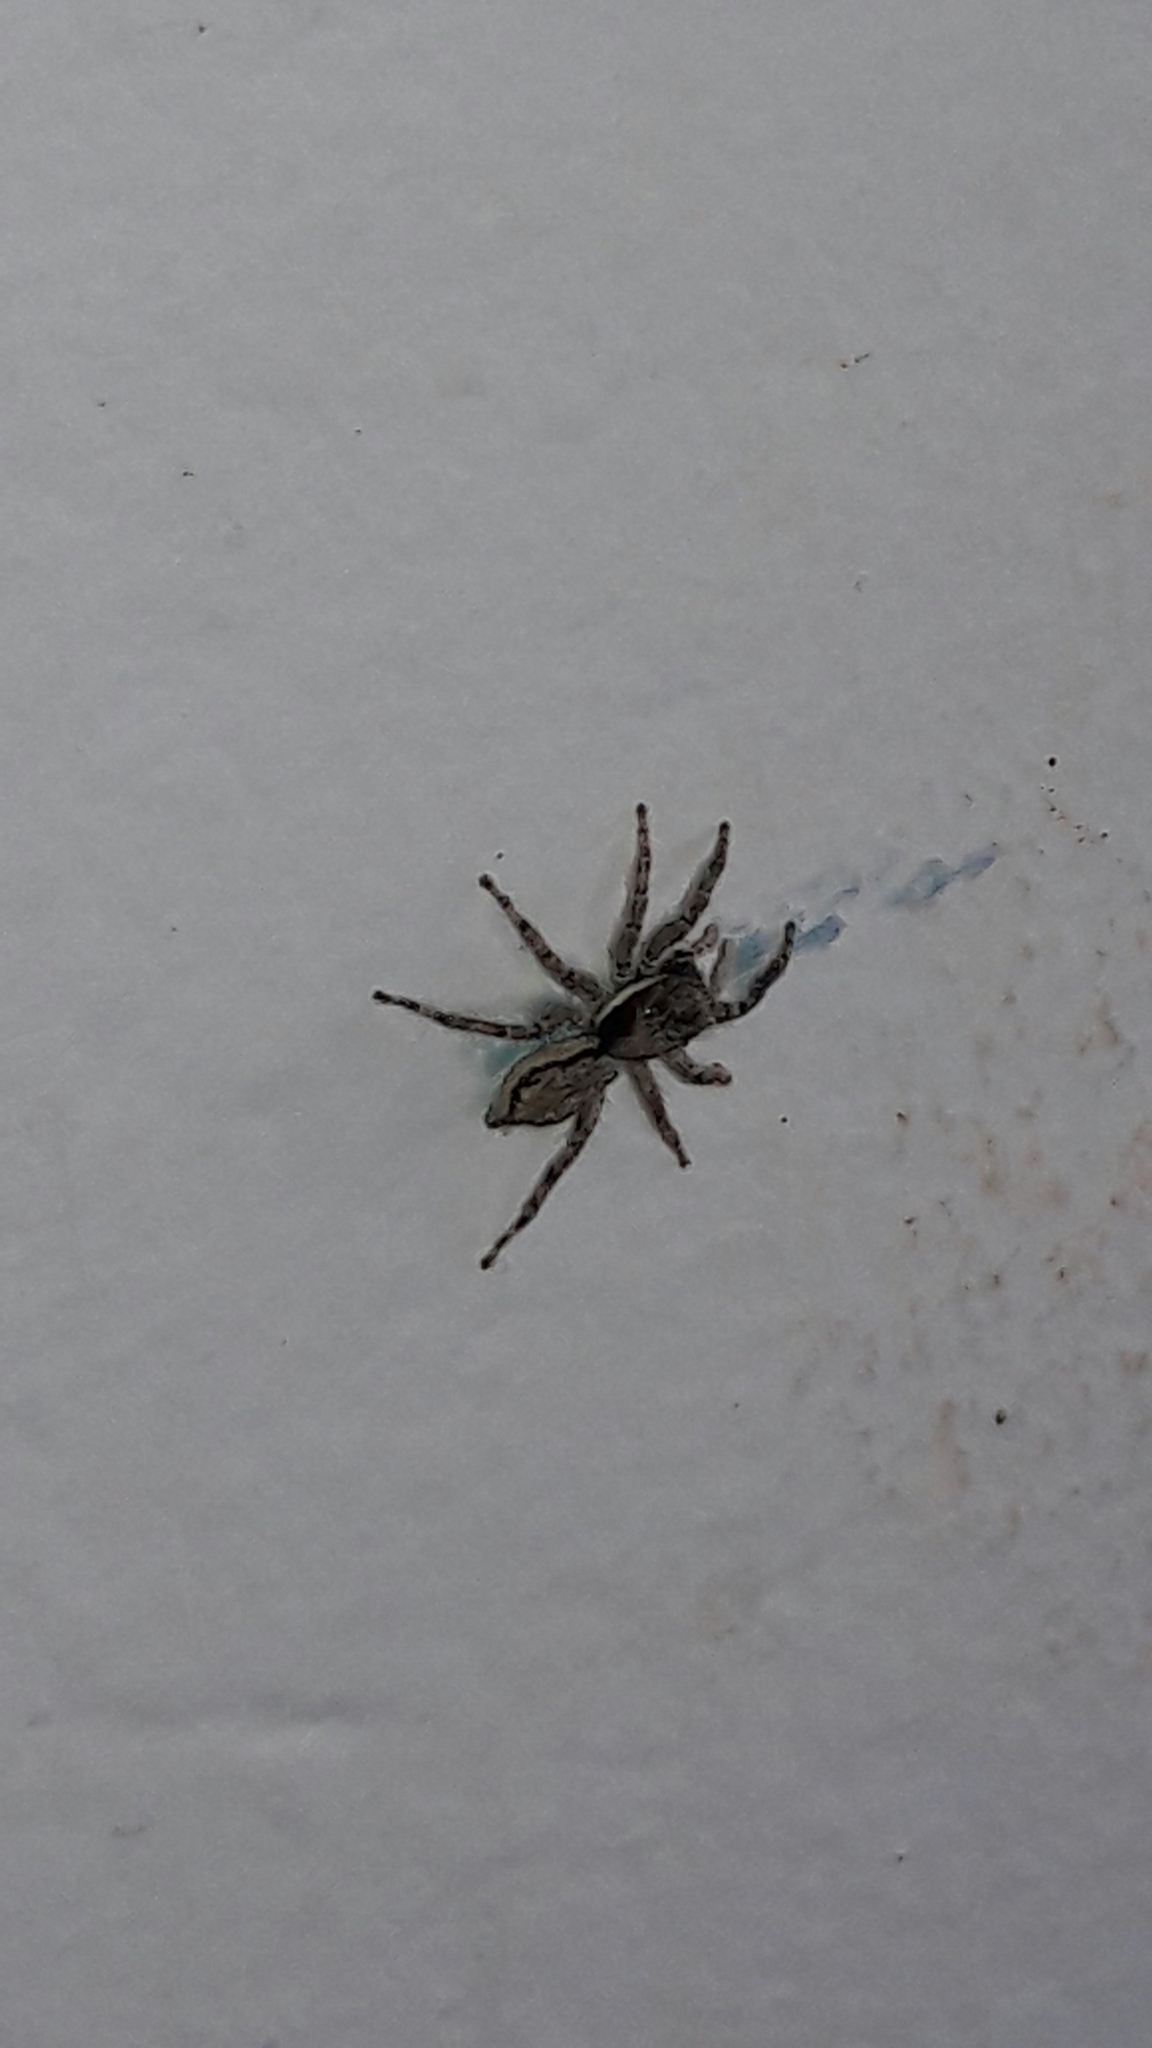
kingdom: Animalia
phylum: Arthropoda
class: Arachnida
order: Araneae
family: Salticidae
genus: Menemerus
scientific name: Menemerus bivittatus
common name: Gray wall jumper
